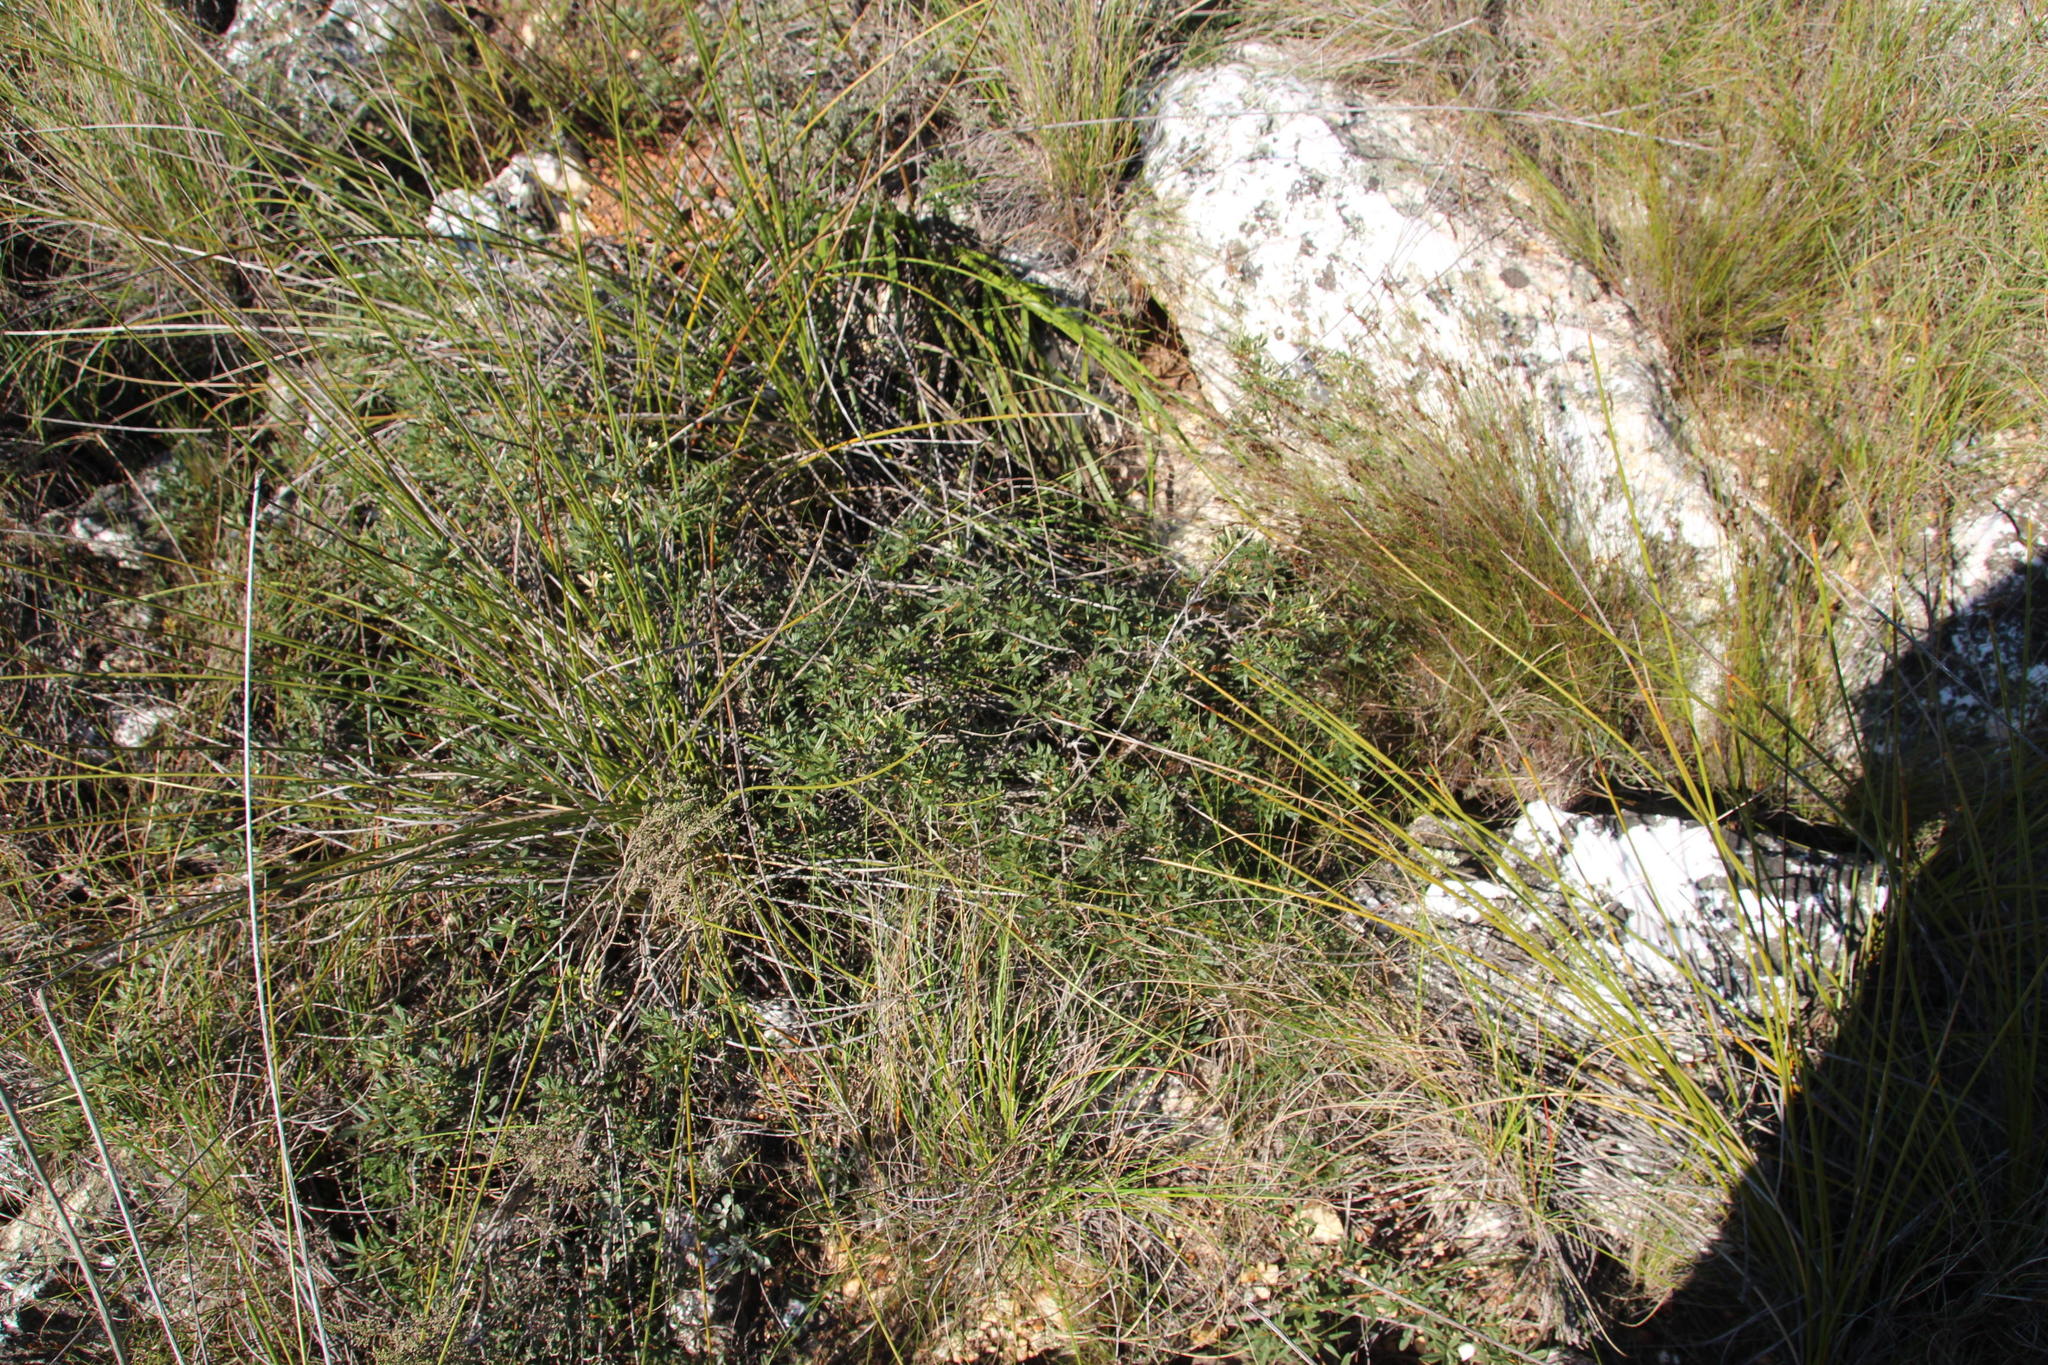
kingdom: Plantae
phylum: Tracheophyta
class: Magnoliopsida
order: Sapindales
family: Anacardiaceae
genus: Searsia
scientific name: Searsia rosmarinifolia
